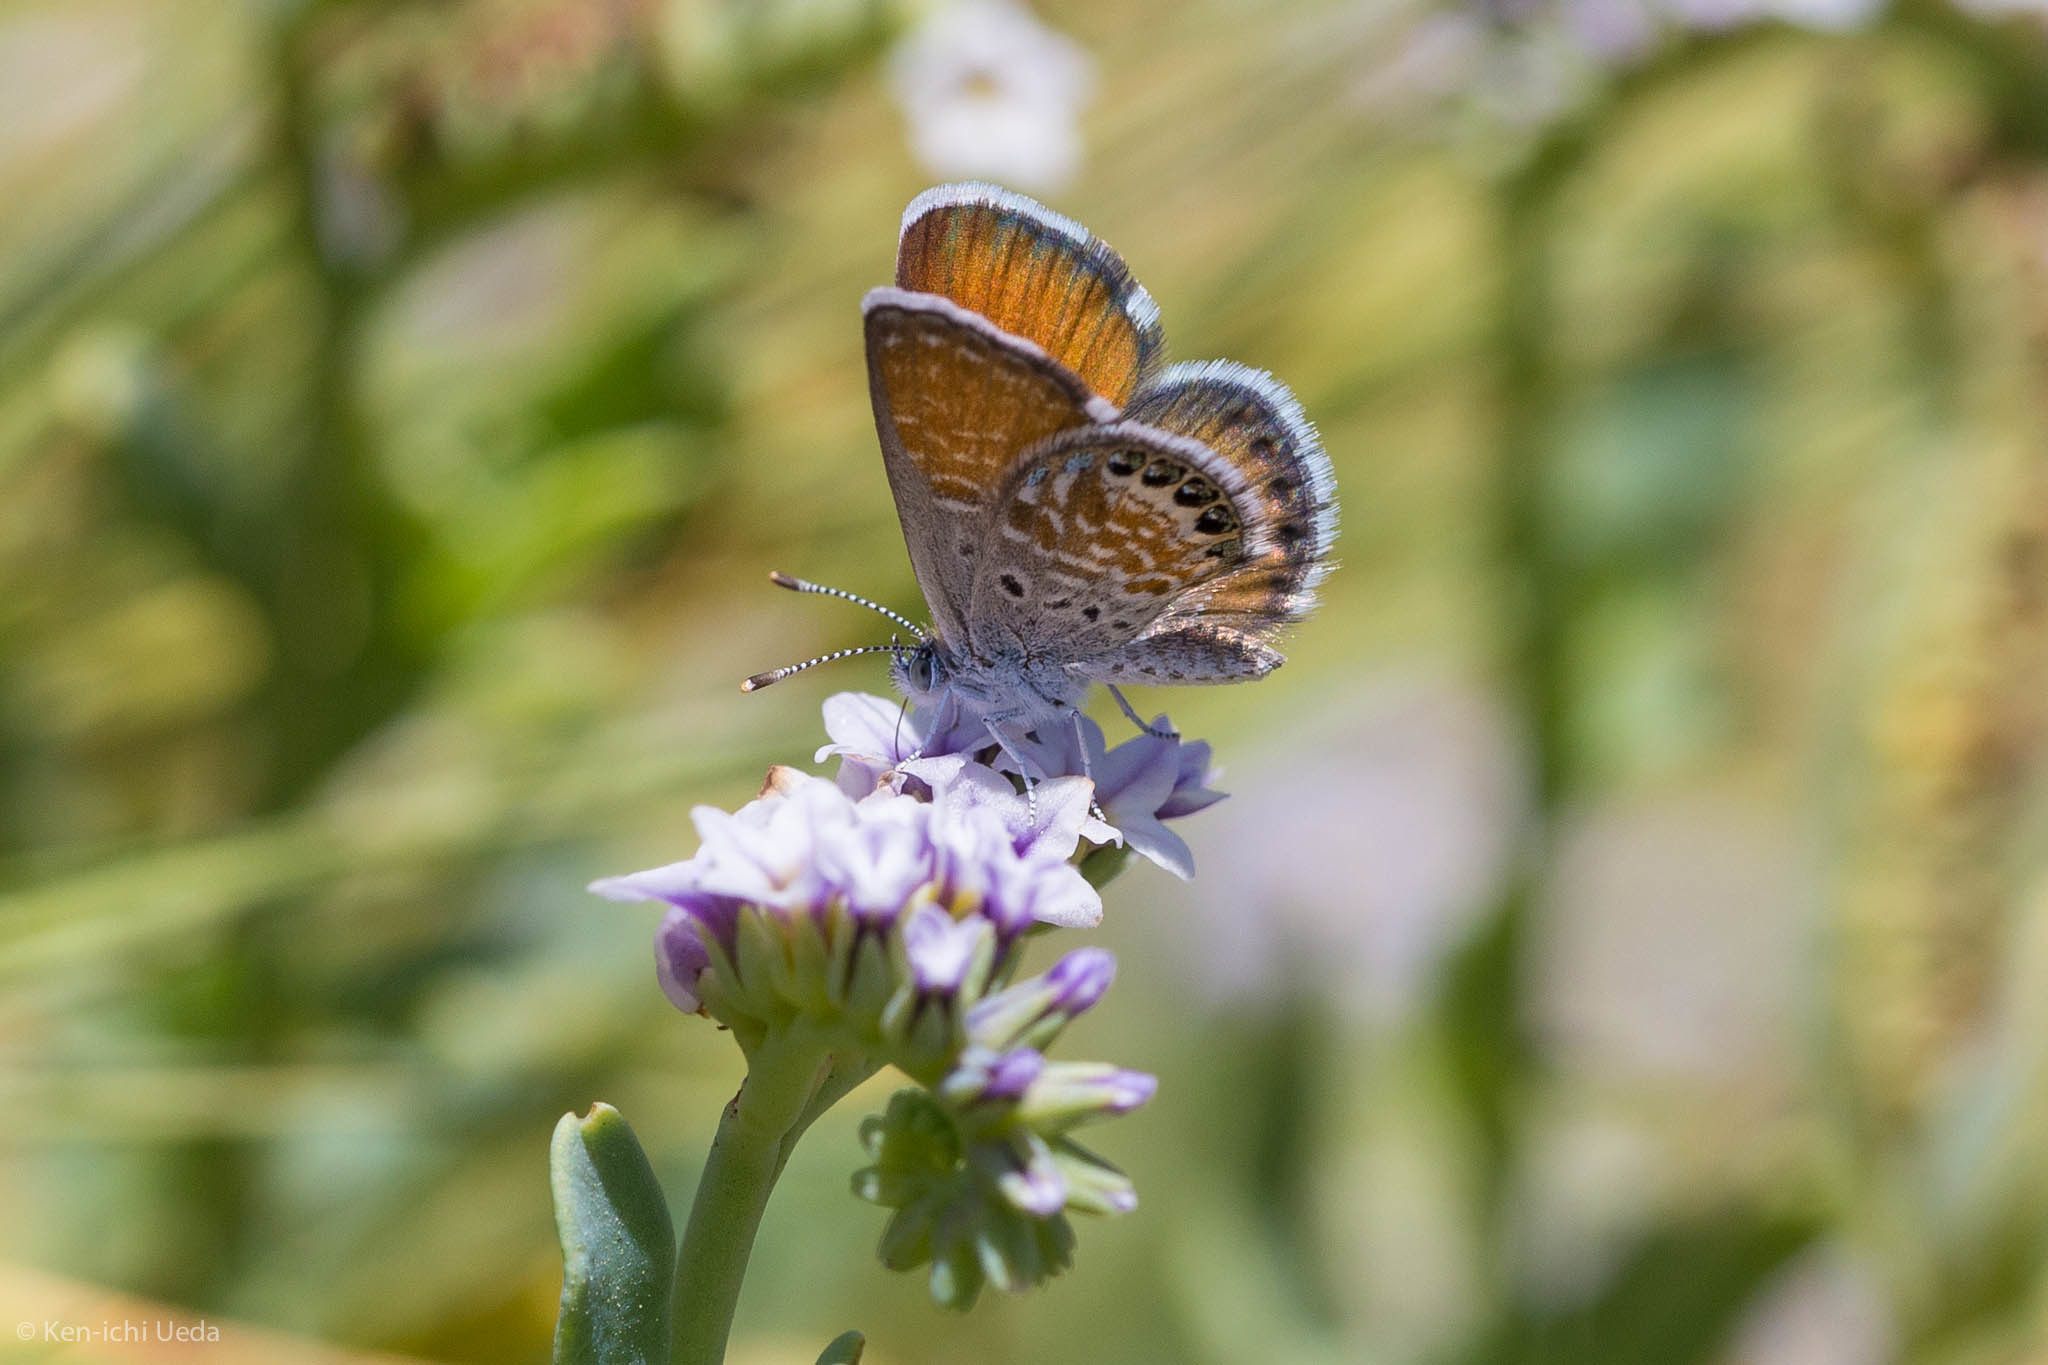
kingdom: Animalia
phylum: Arthropoda
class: Insecta
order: Lepidoptera
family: Lycaenidae
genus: Brephidium
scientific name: Brephidium exilis
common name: Pygmy blue
